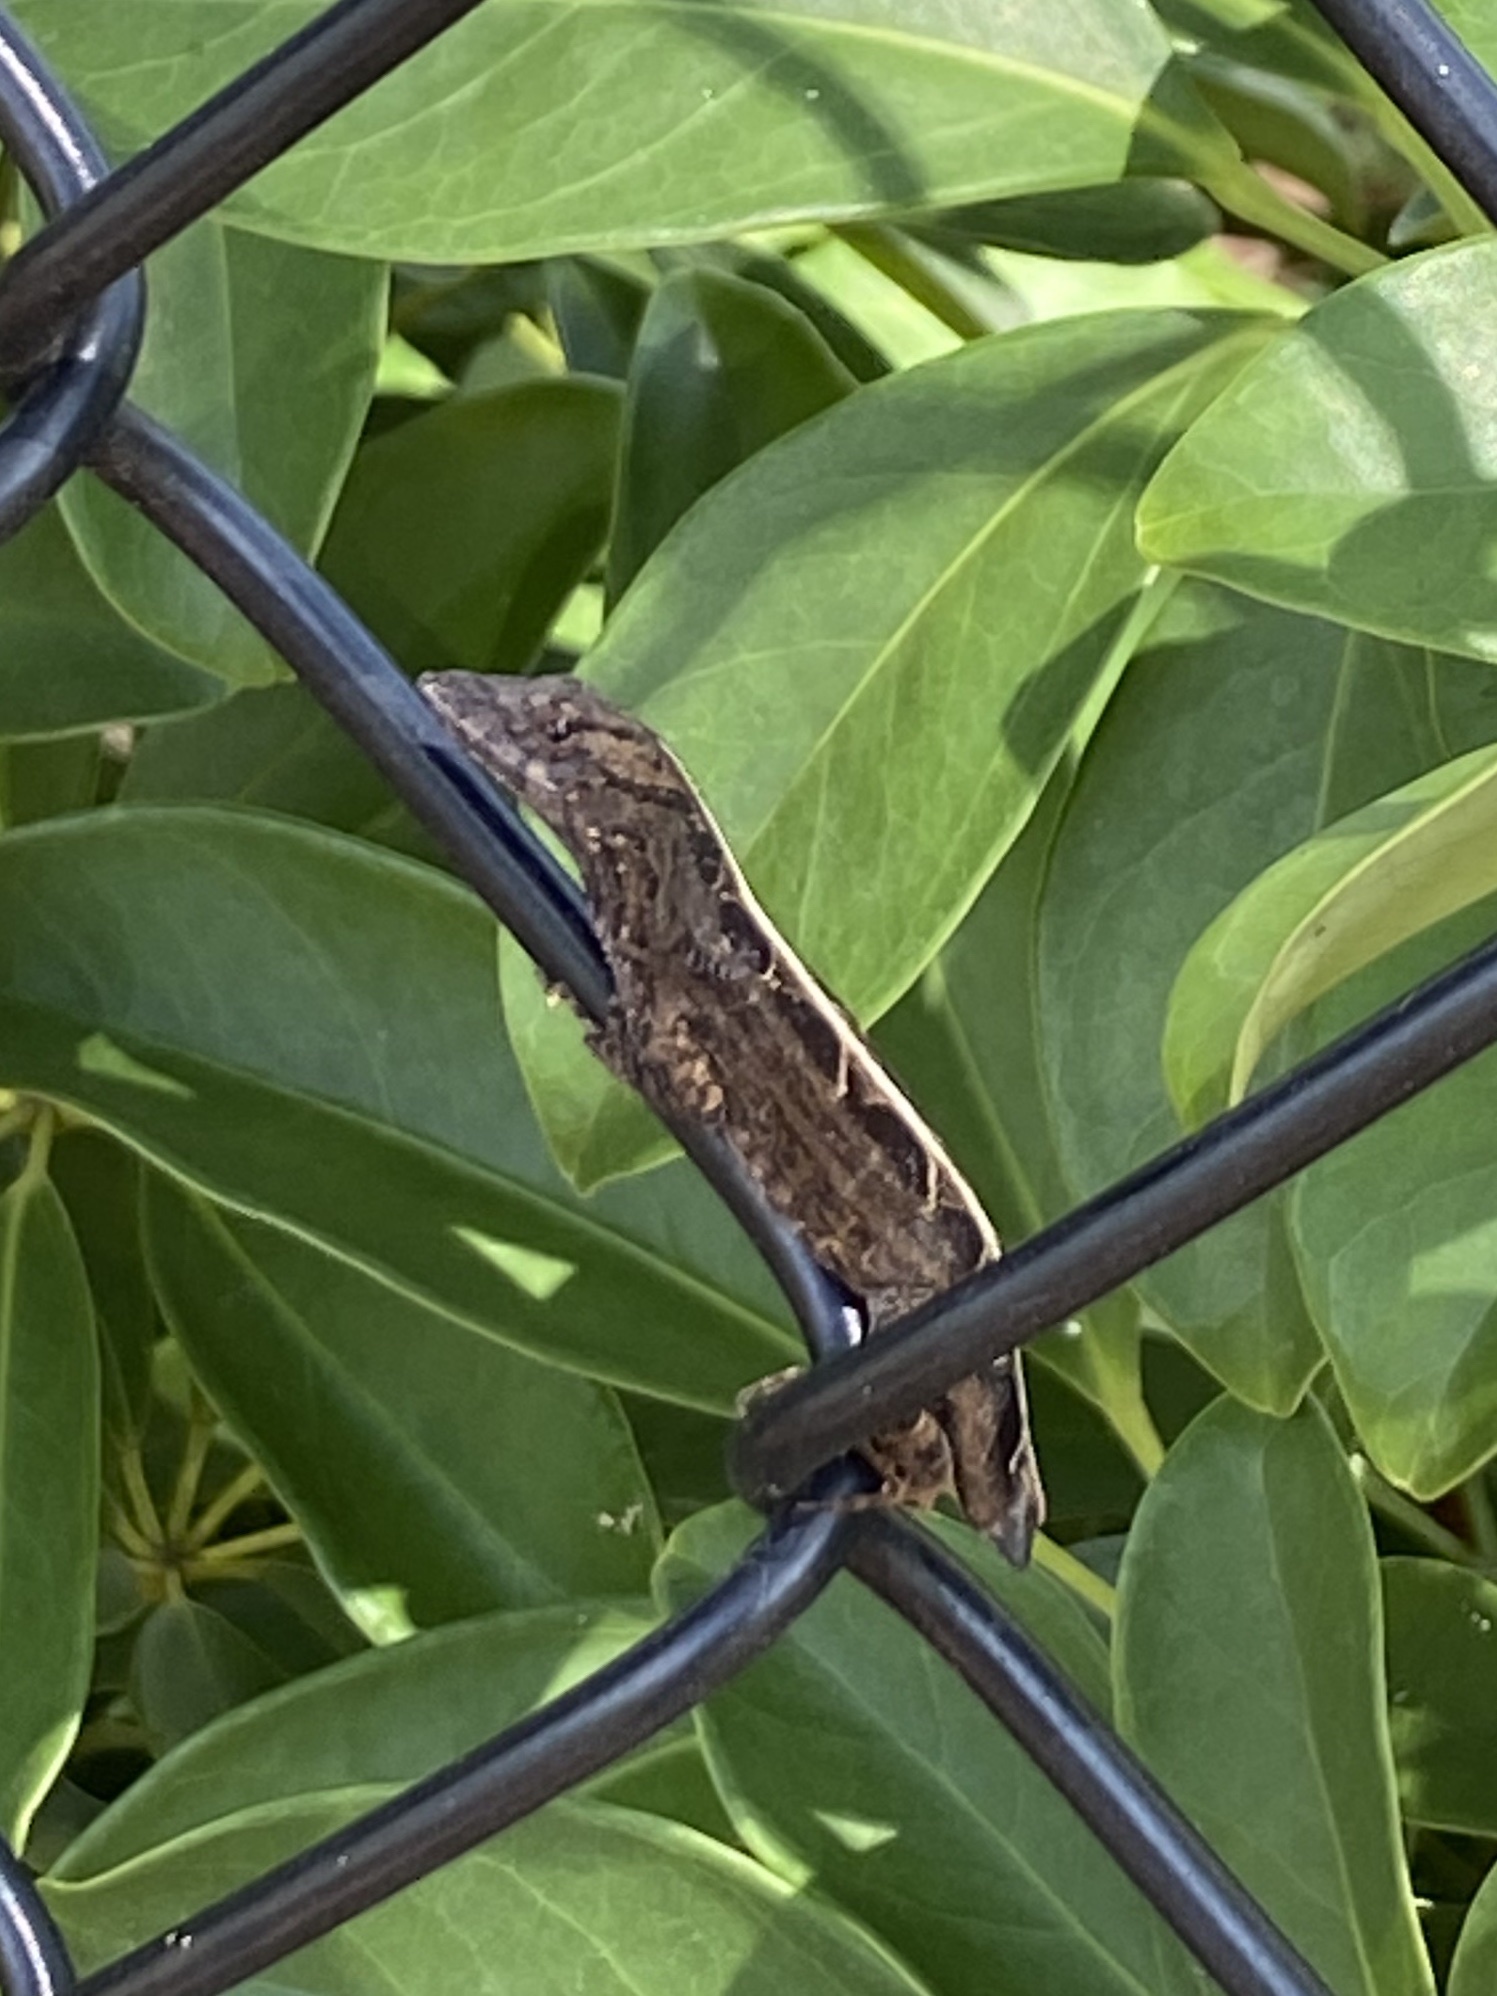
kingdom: Animalia
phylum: Chordata
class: Squamata
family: Dactyloidae
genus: Anolis
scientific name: Anolis sagrei
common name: Brown anole
